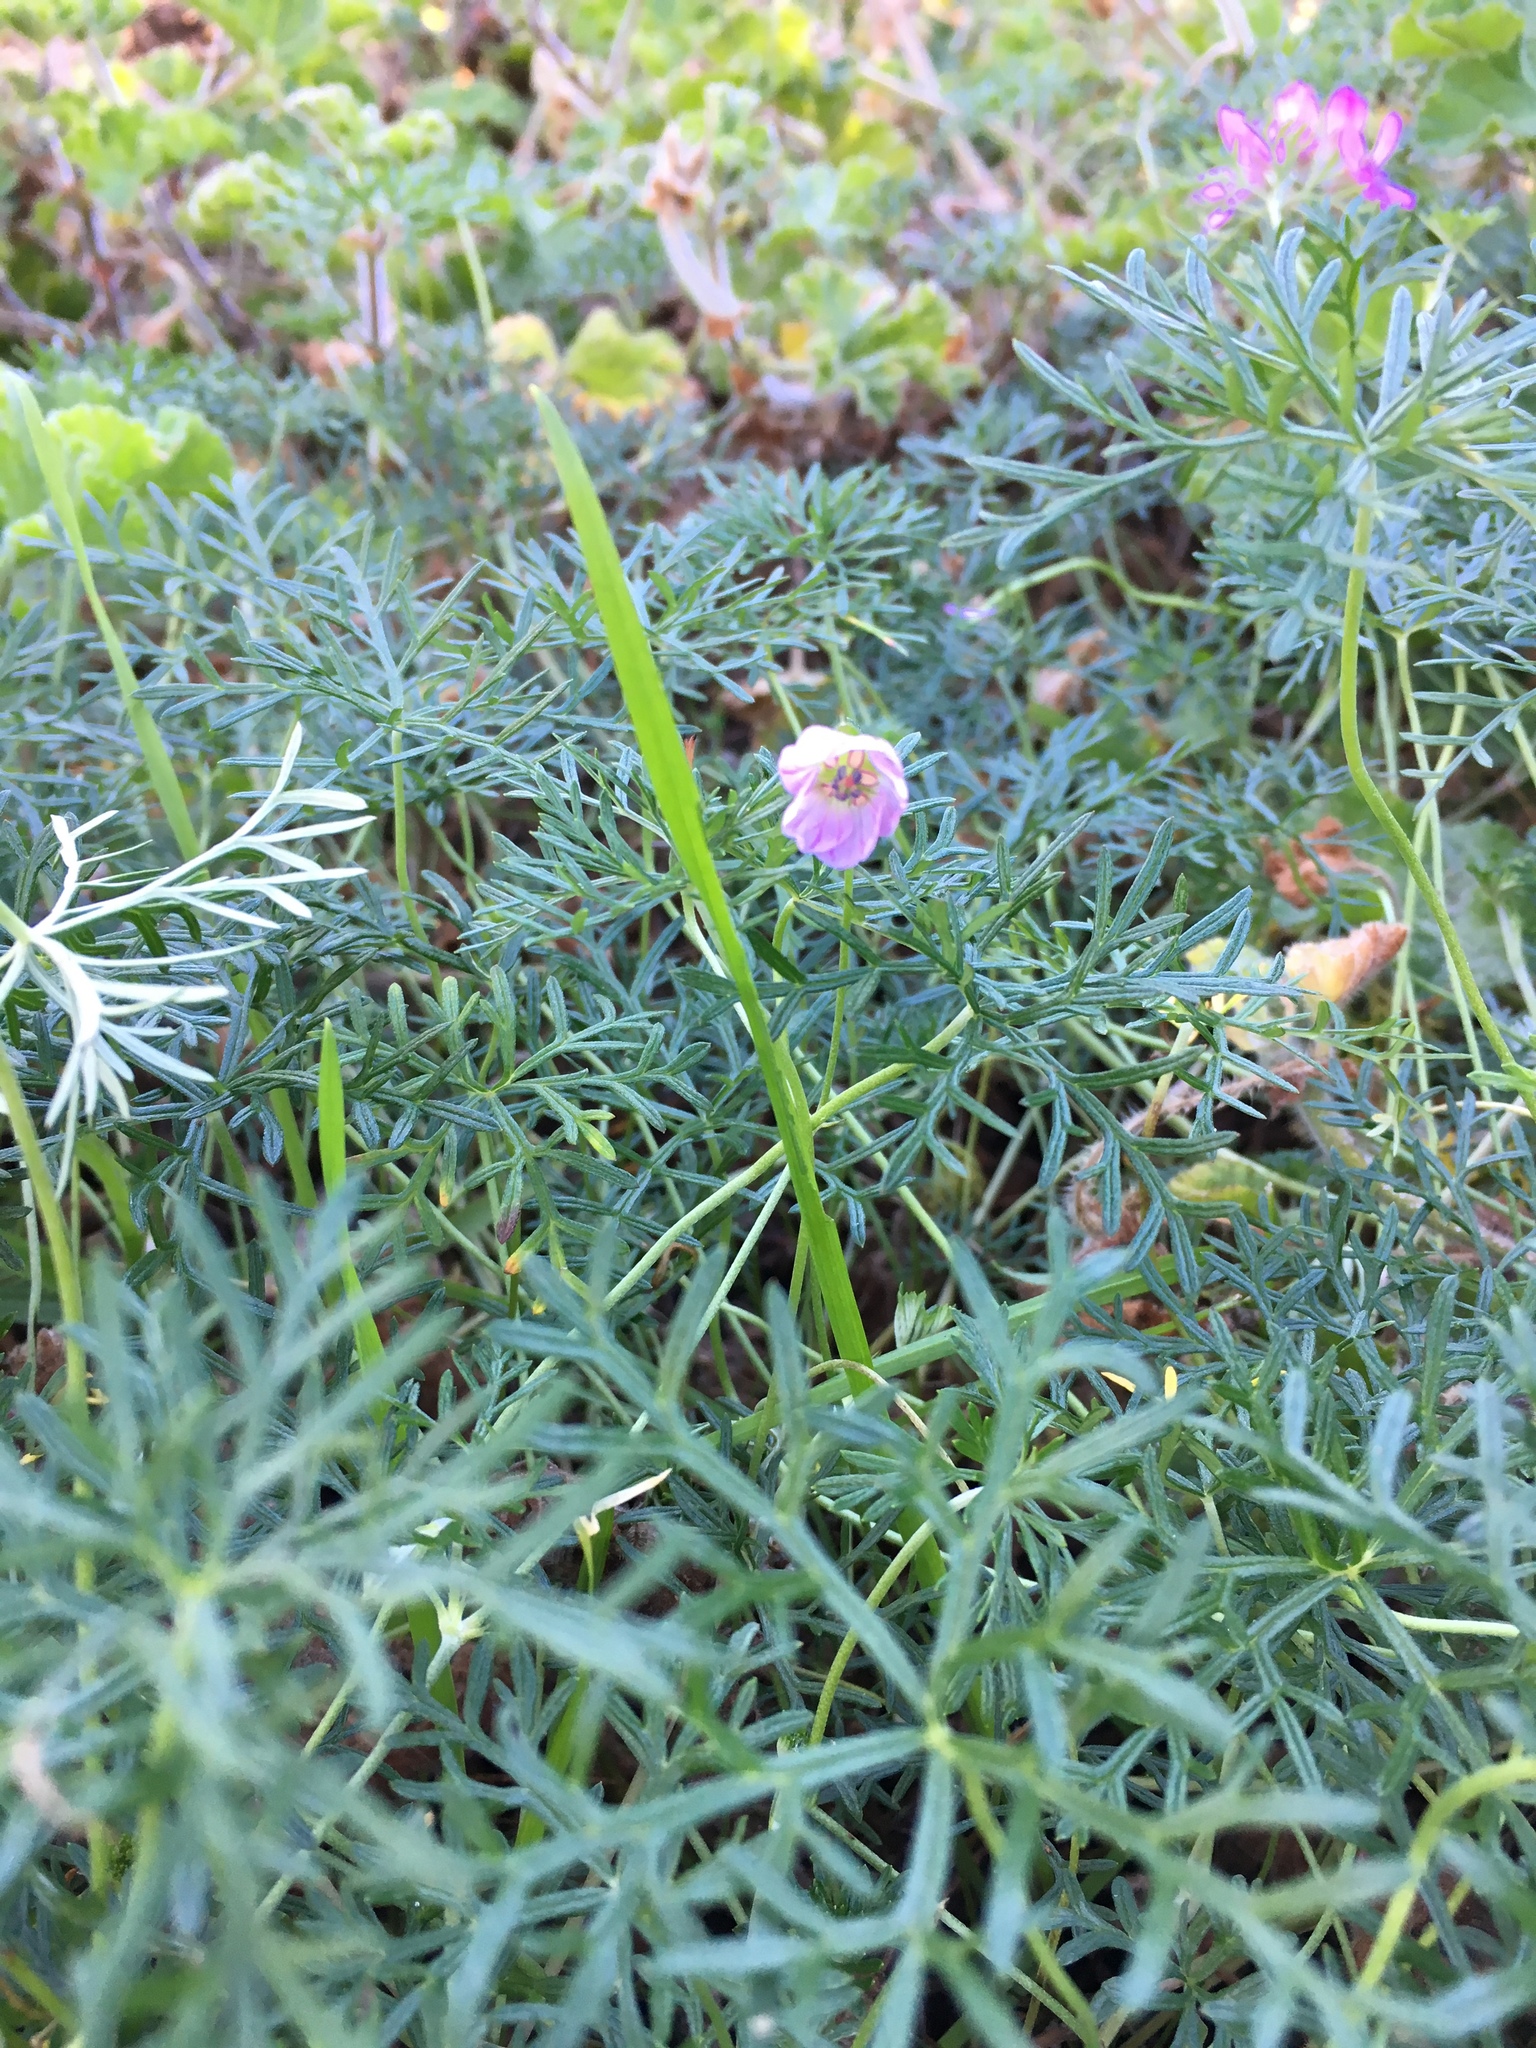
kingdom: Plantae
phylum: Tracheophyta
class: Magnoliopsida
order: Geraniales
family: Geraniaceae
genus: Geranium
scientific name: Geranium incanum
